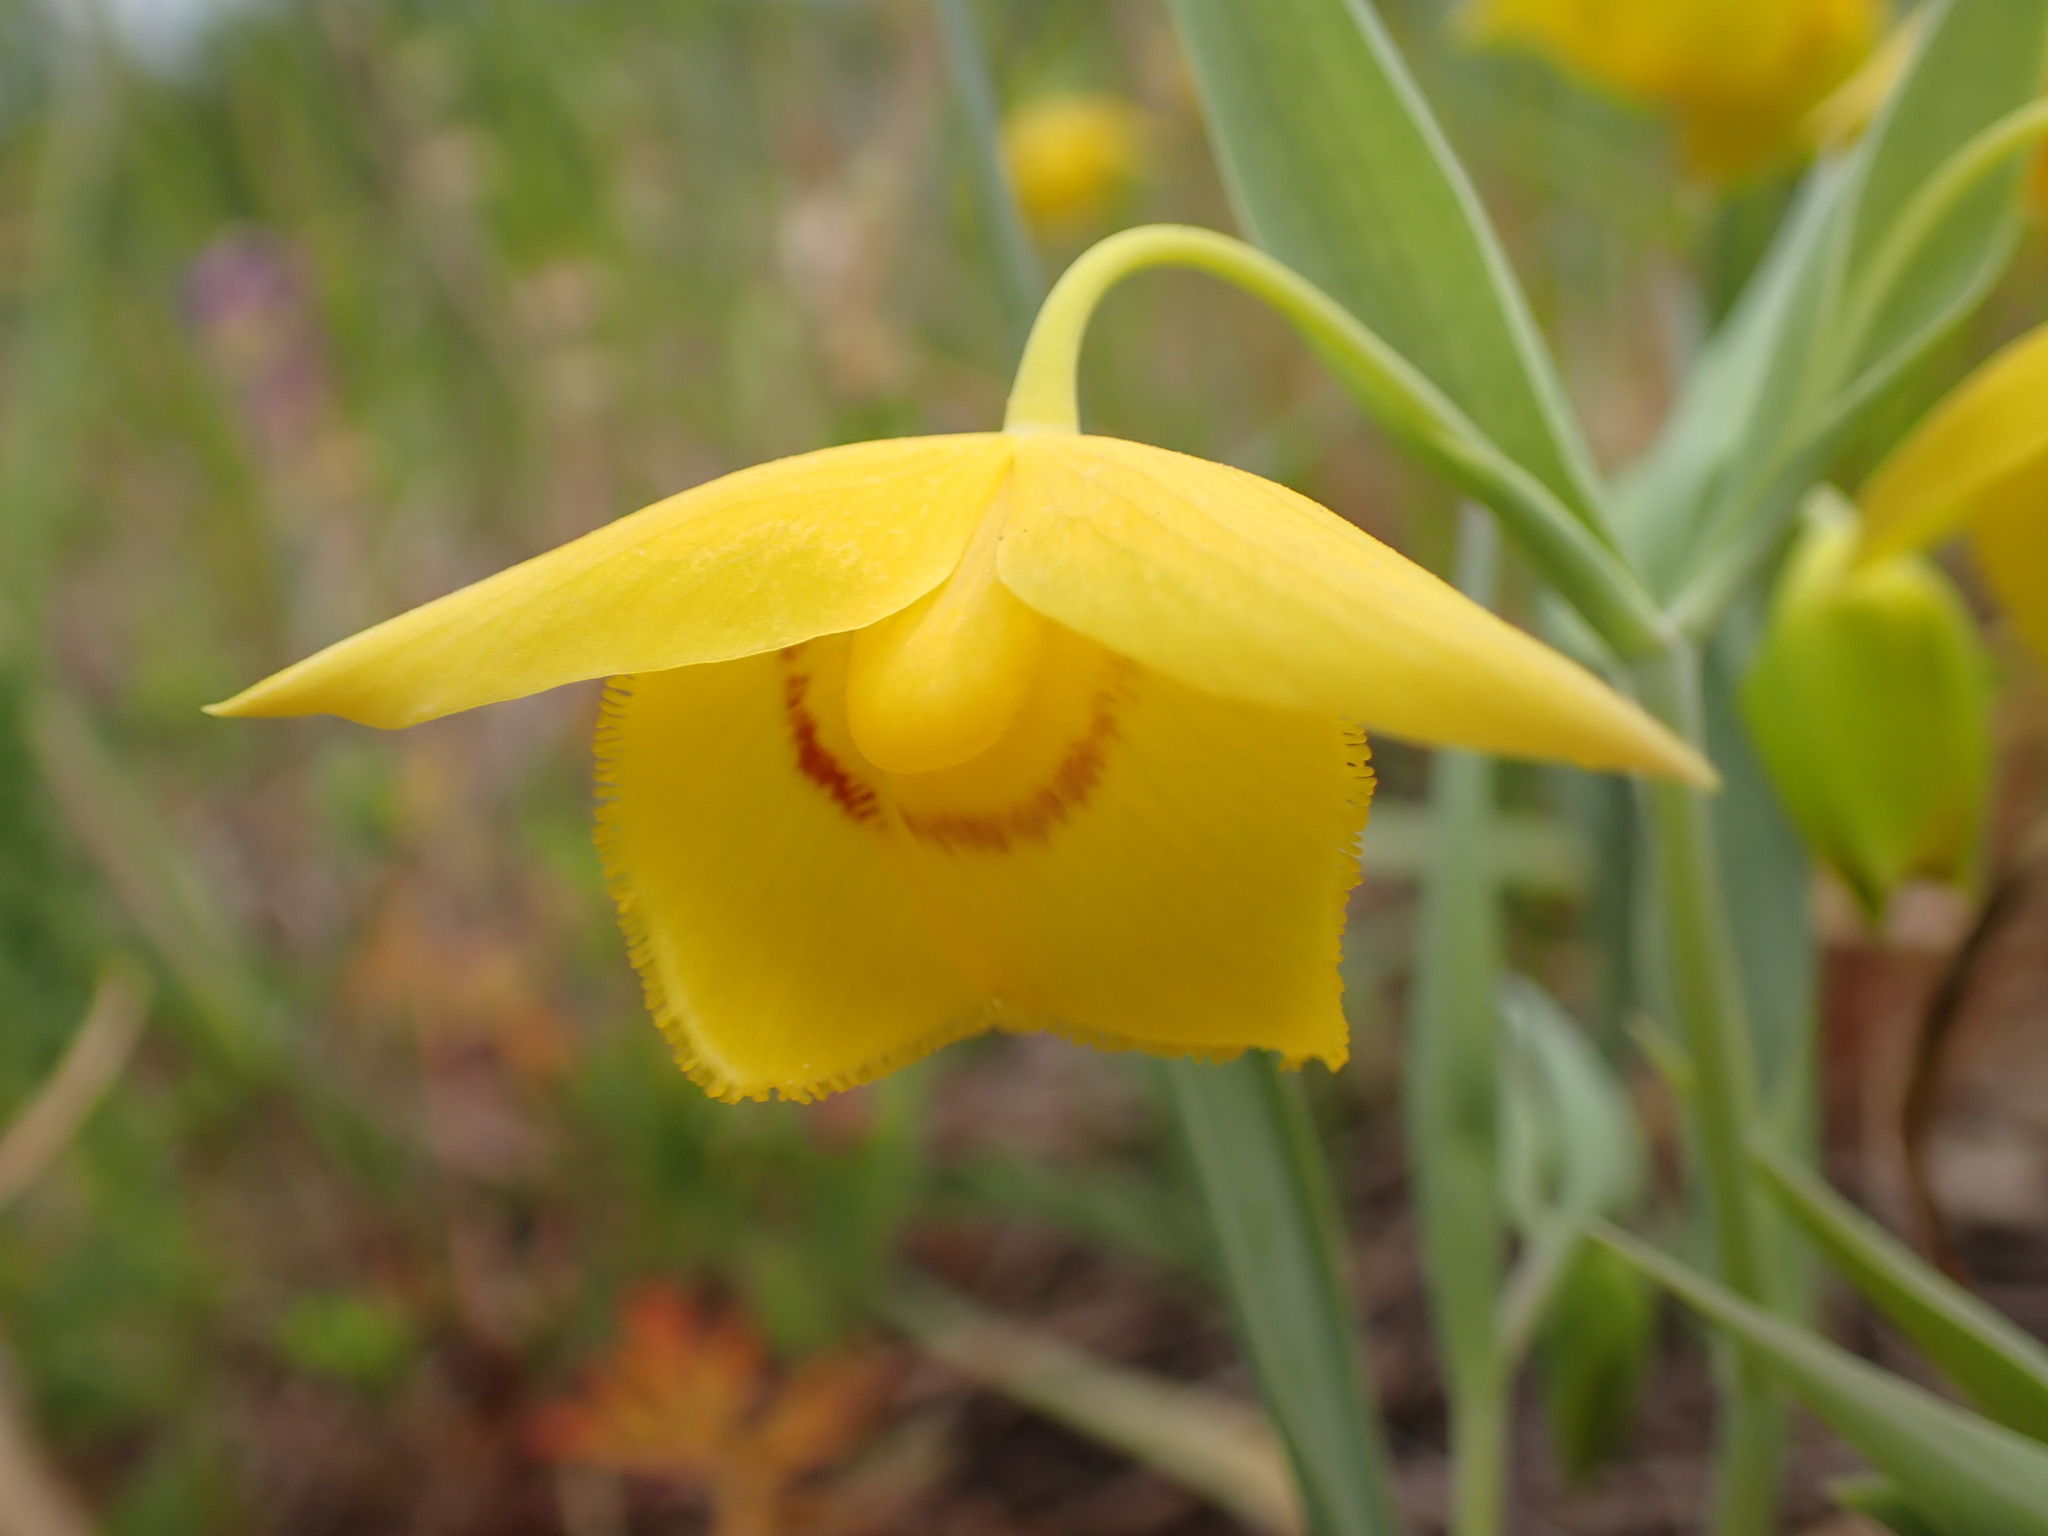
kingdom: Plantae
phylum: Tracheophyta
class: Liliopsida
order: Liliales
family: Liliaceae
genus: Calochortus
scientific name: Calochortus amabilis
